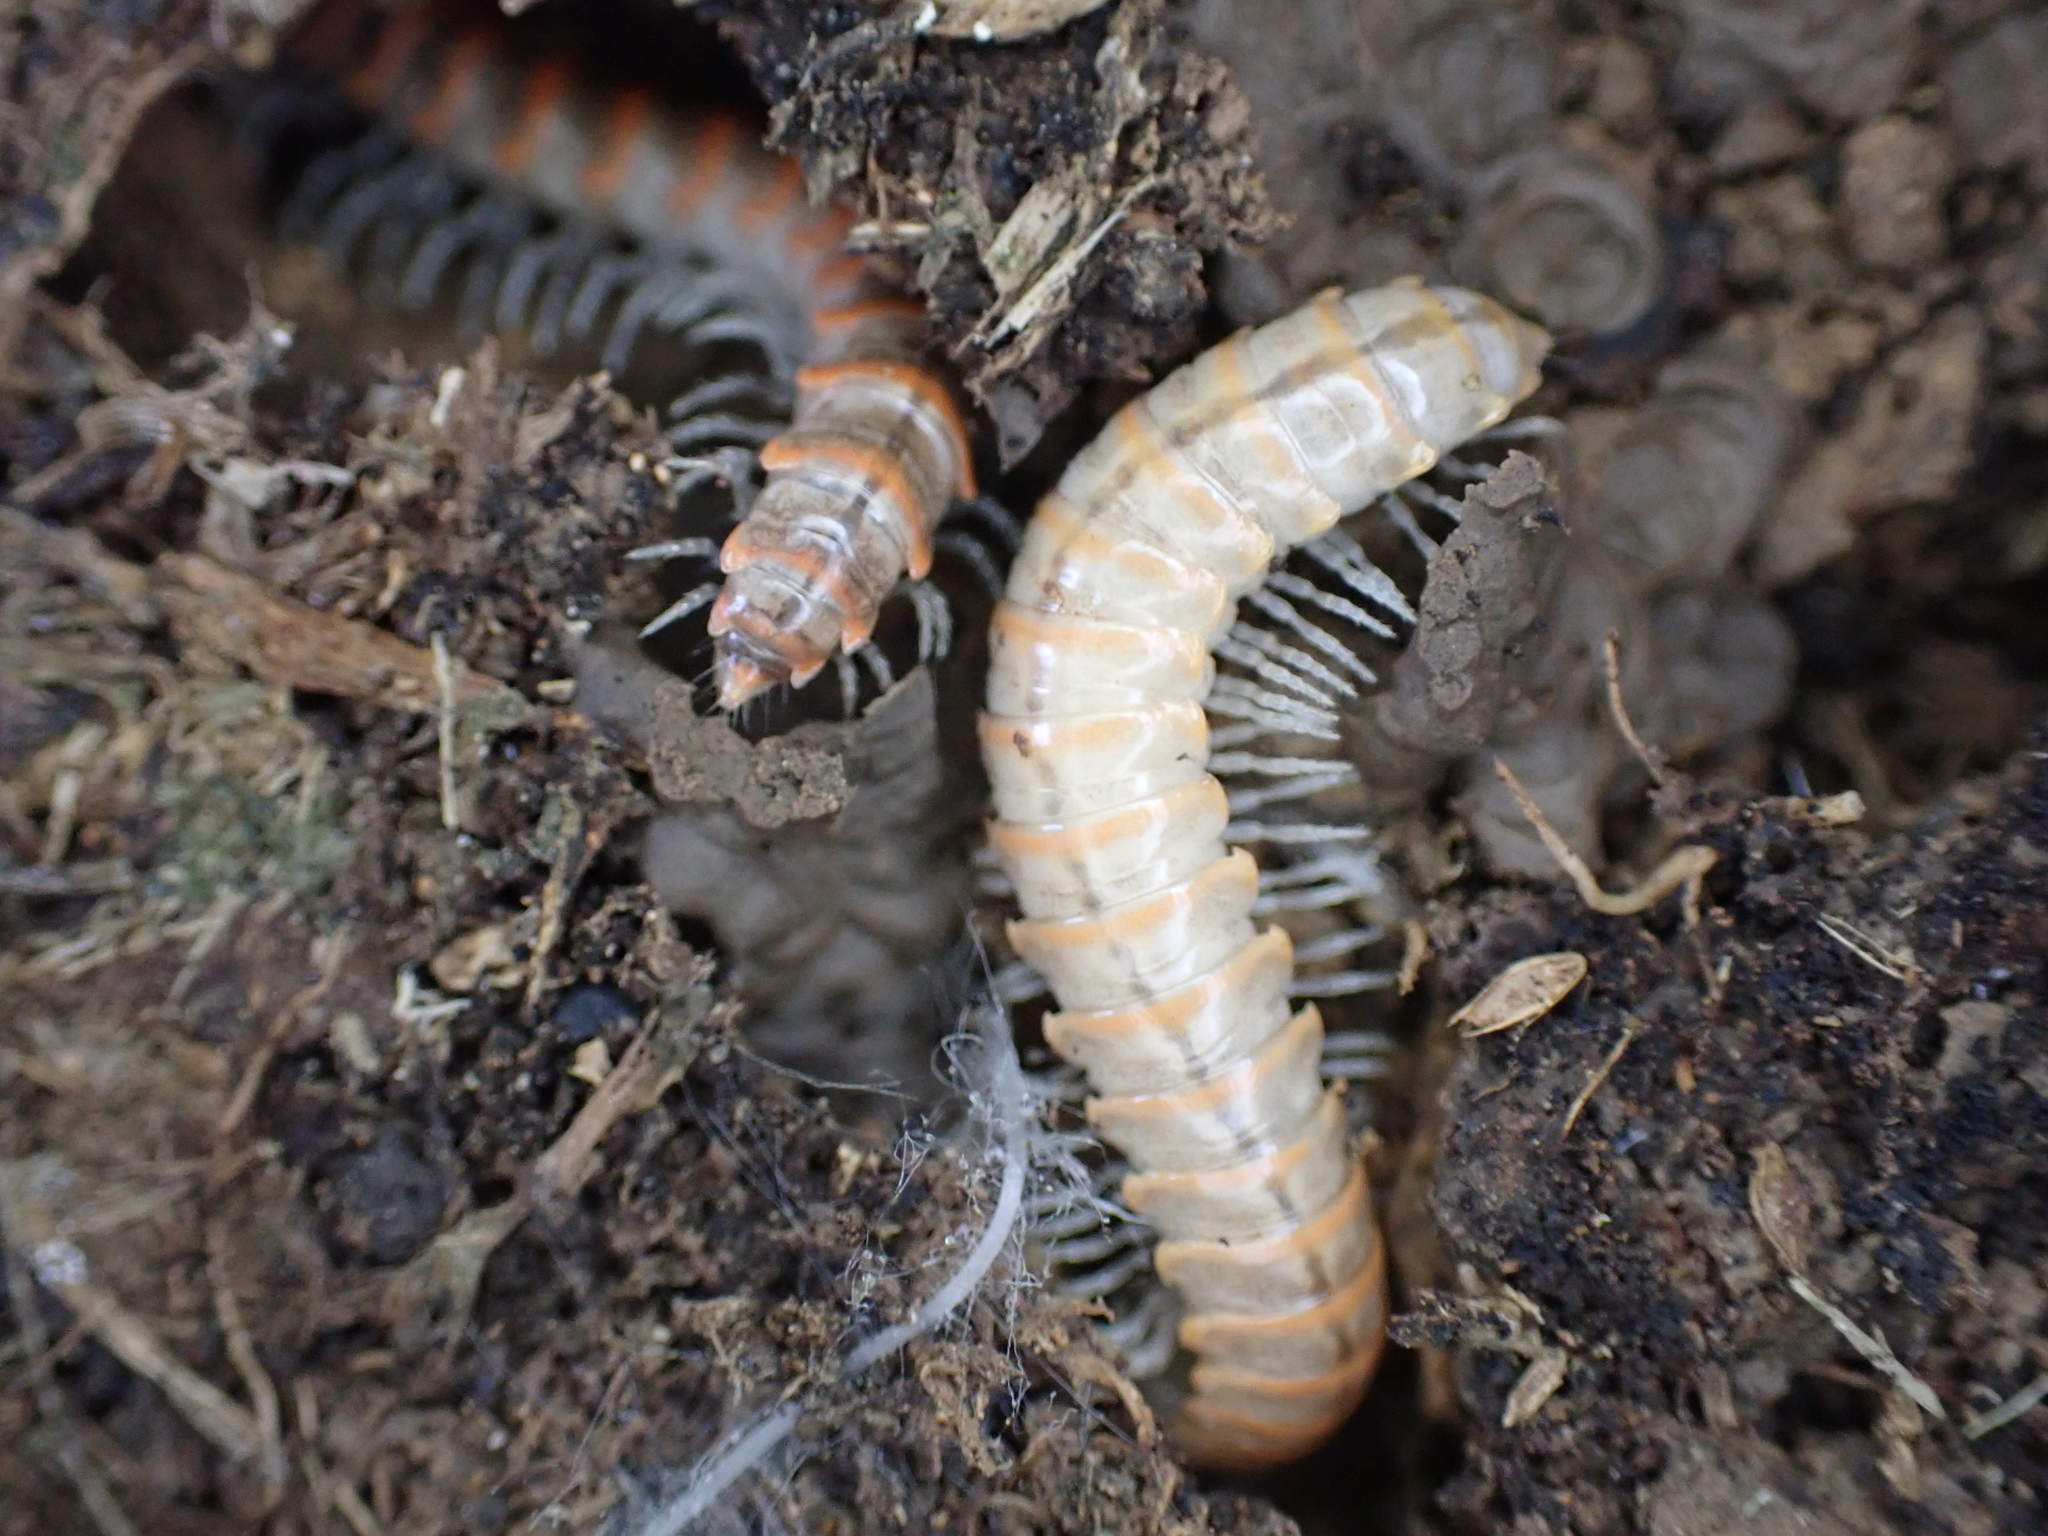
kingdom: Animalia
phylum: Arthropoda
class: Diplopoda
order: Polydesmida
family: Xystodesmidae
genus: Oenomaea
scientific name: Oenomaea pulchella
